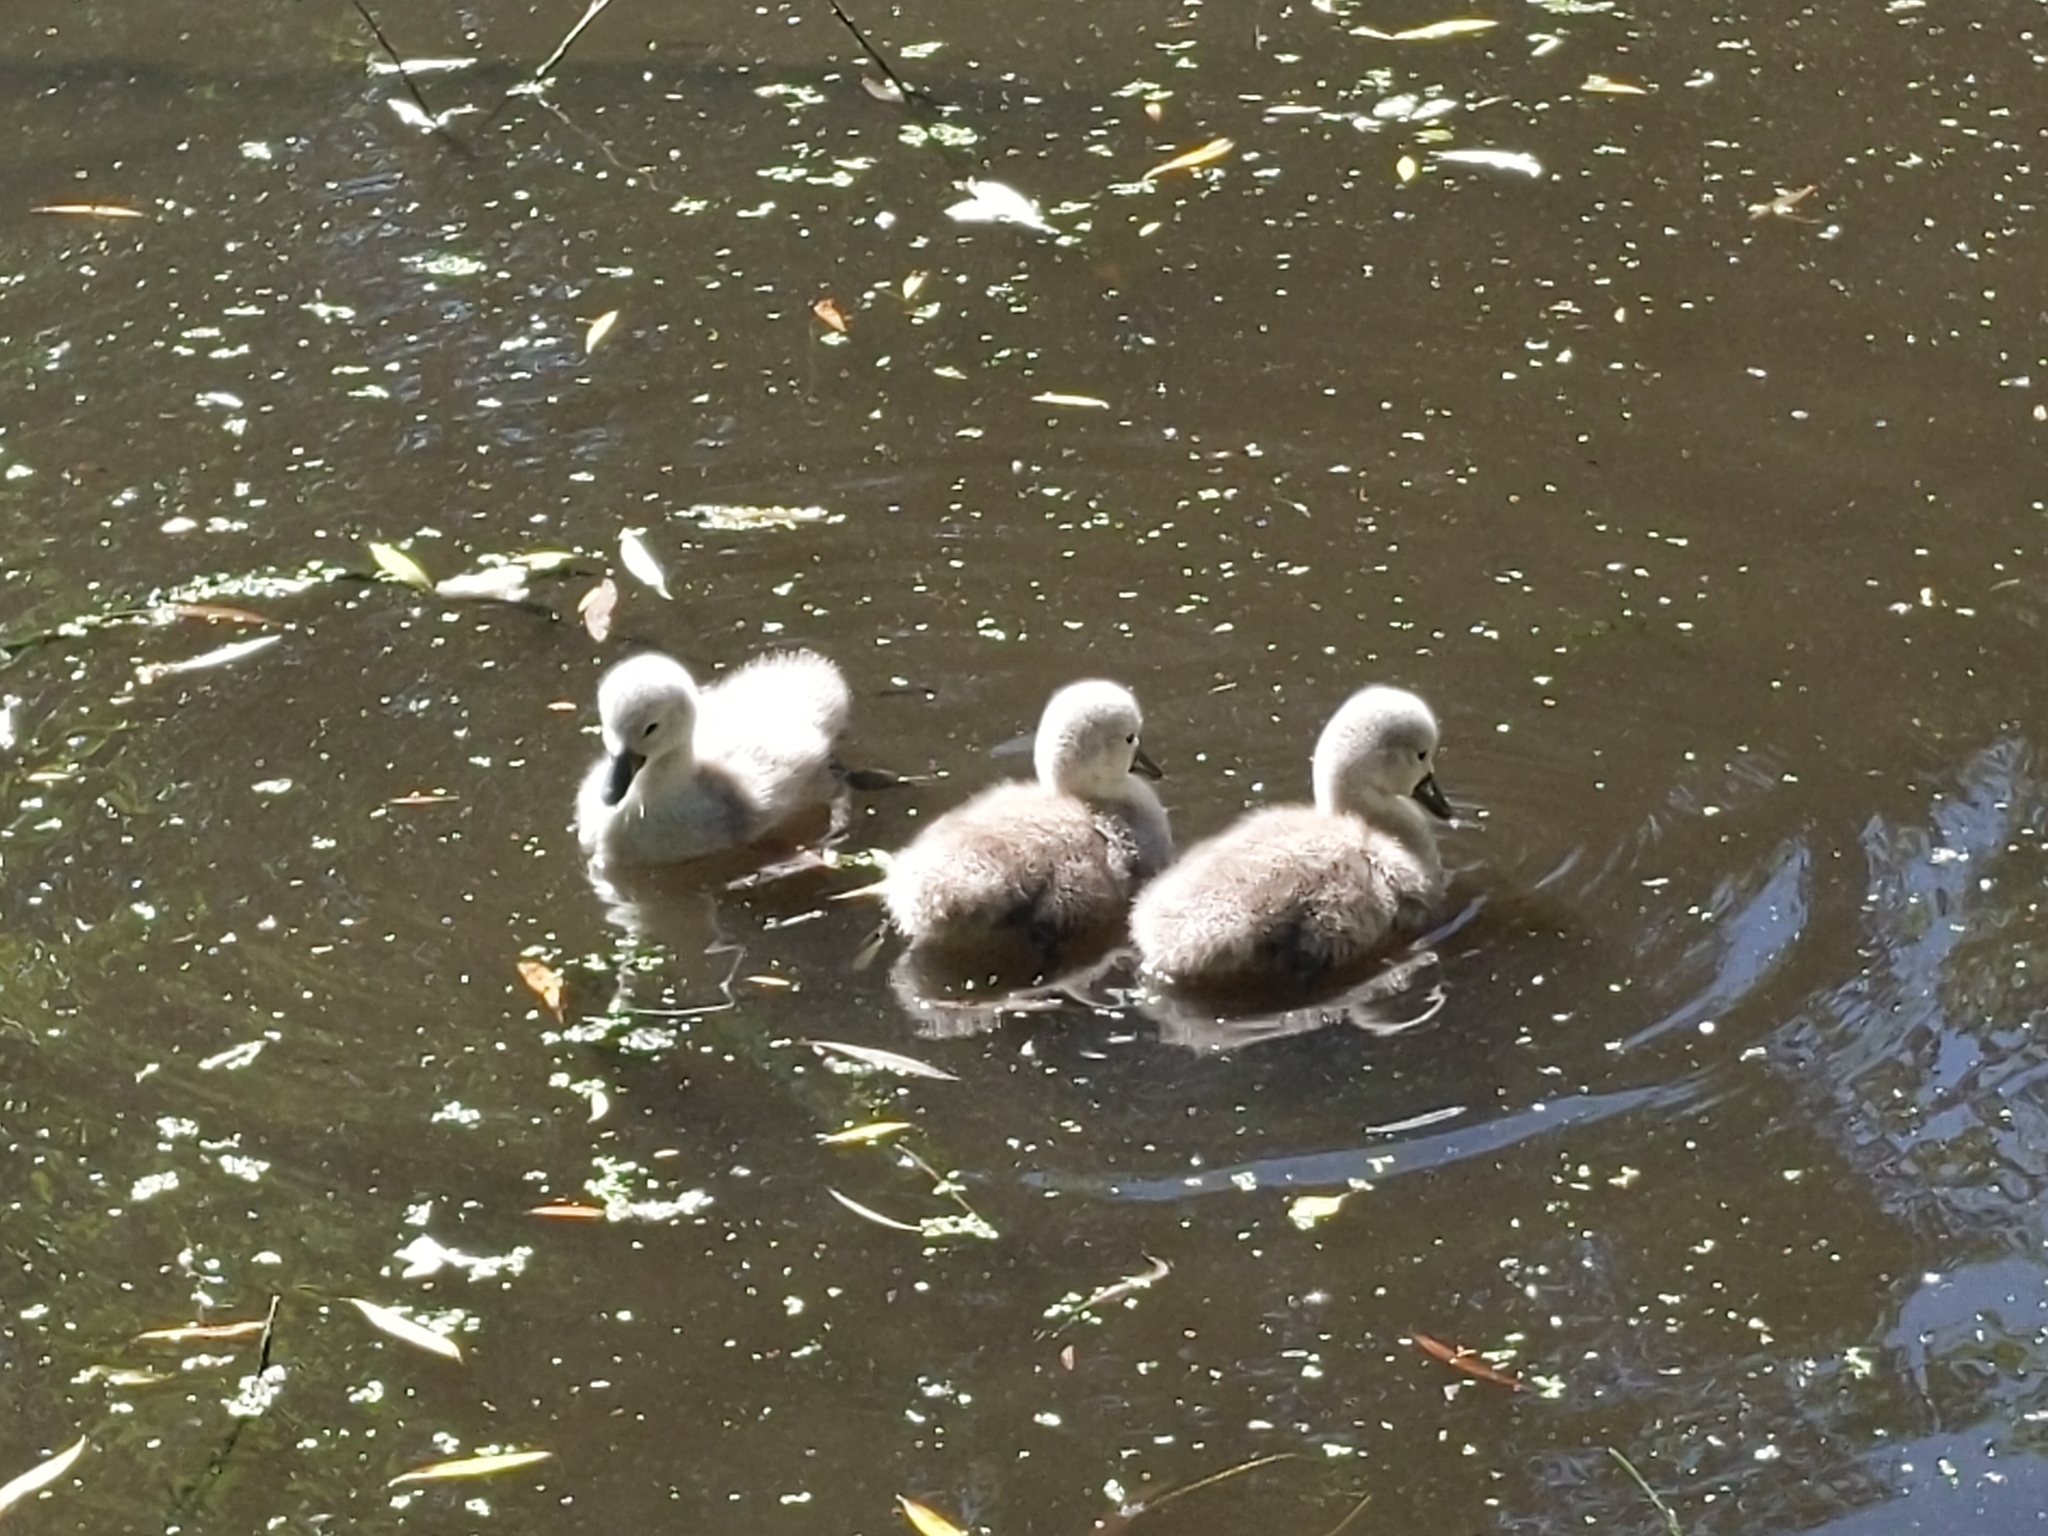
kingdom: Animalia
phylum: Chordata
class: Aves
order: Anseriformes
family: Anatidae
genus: Cygnus
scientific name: Cygnus olor
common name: Mute swan
